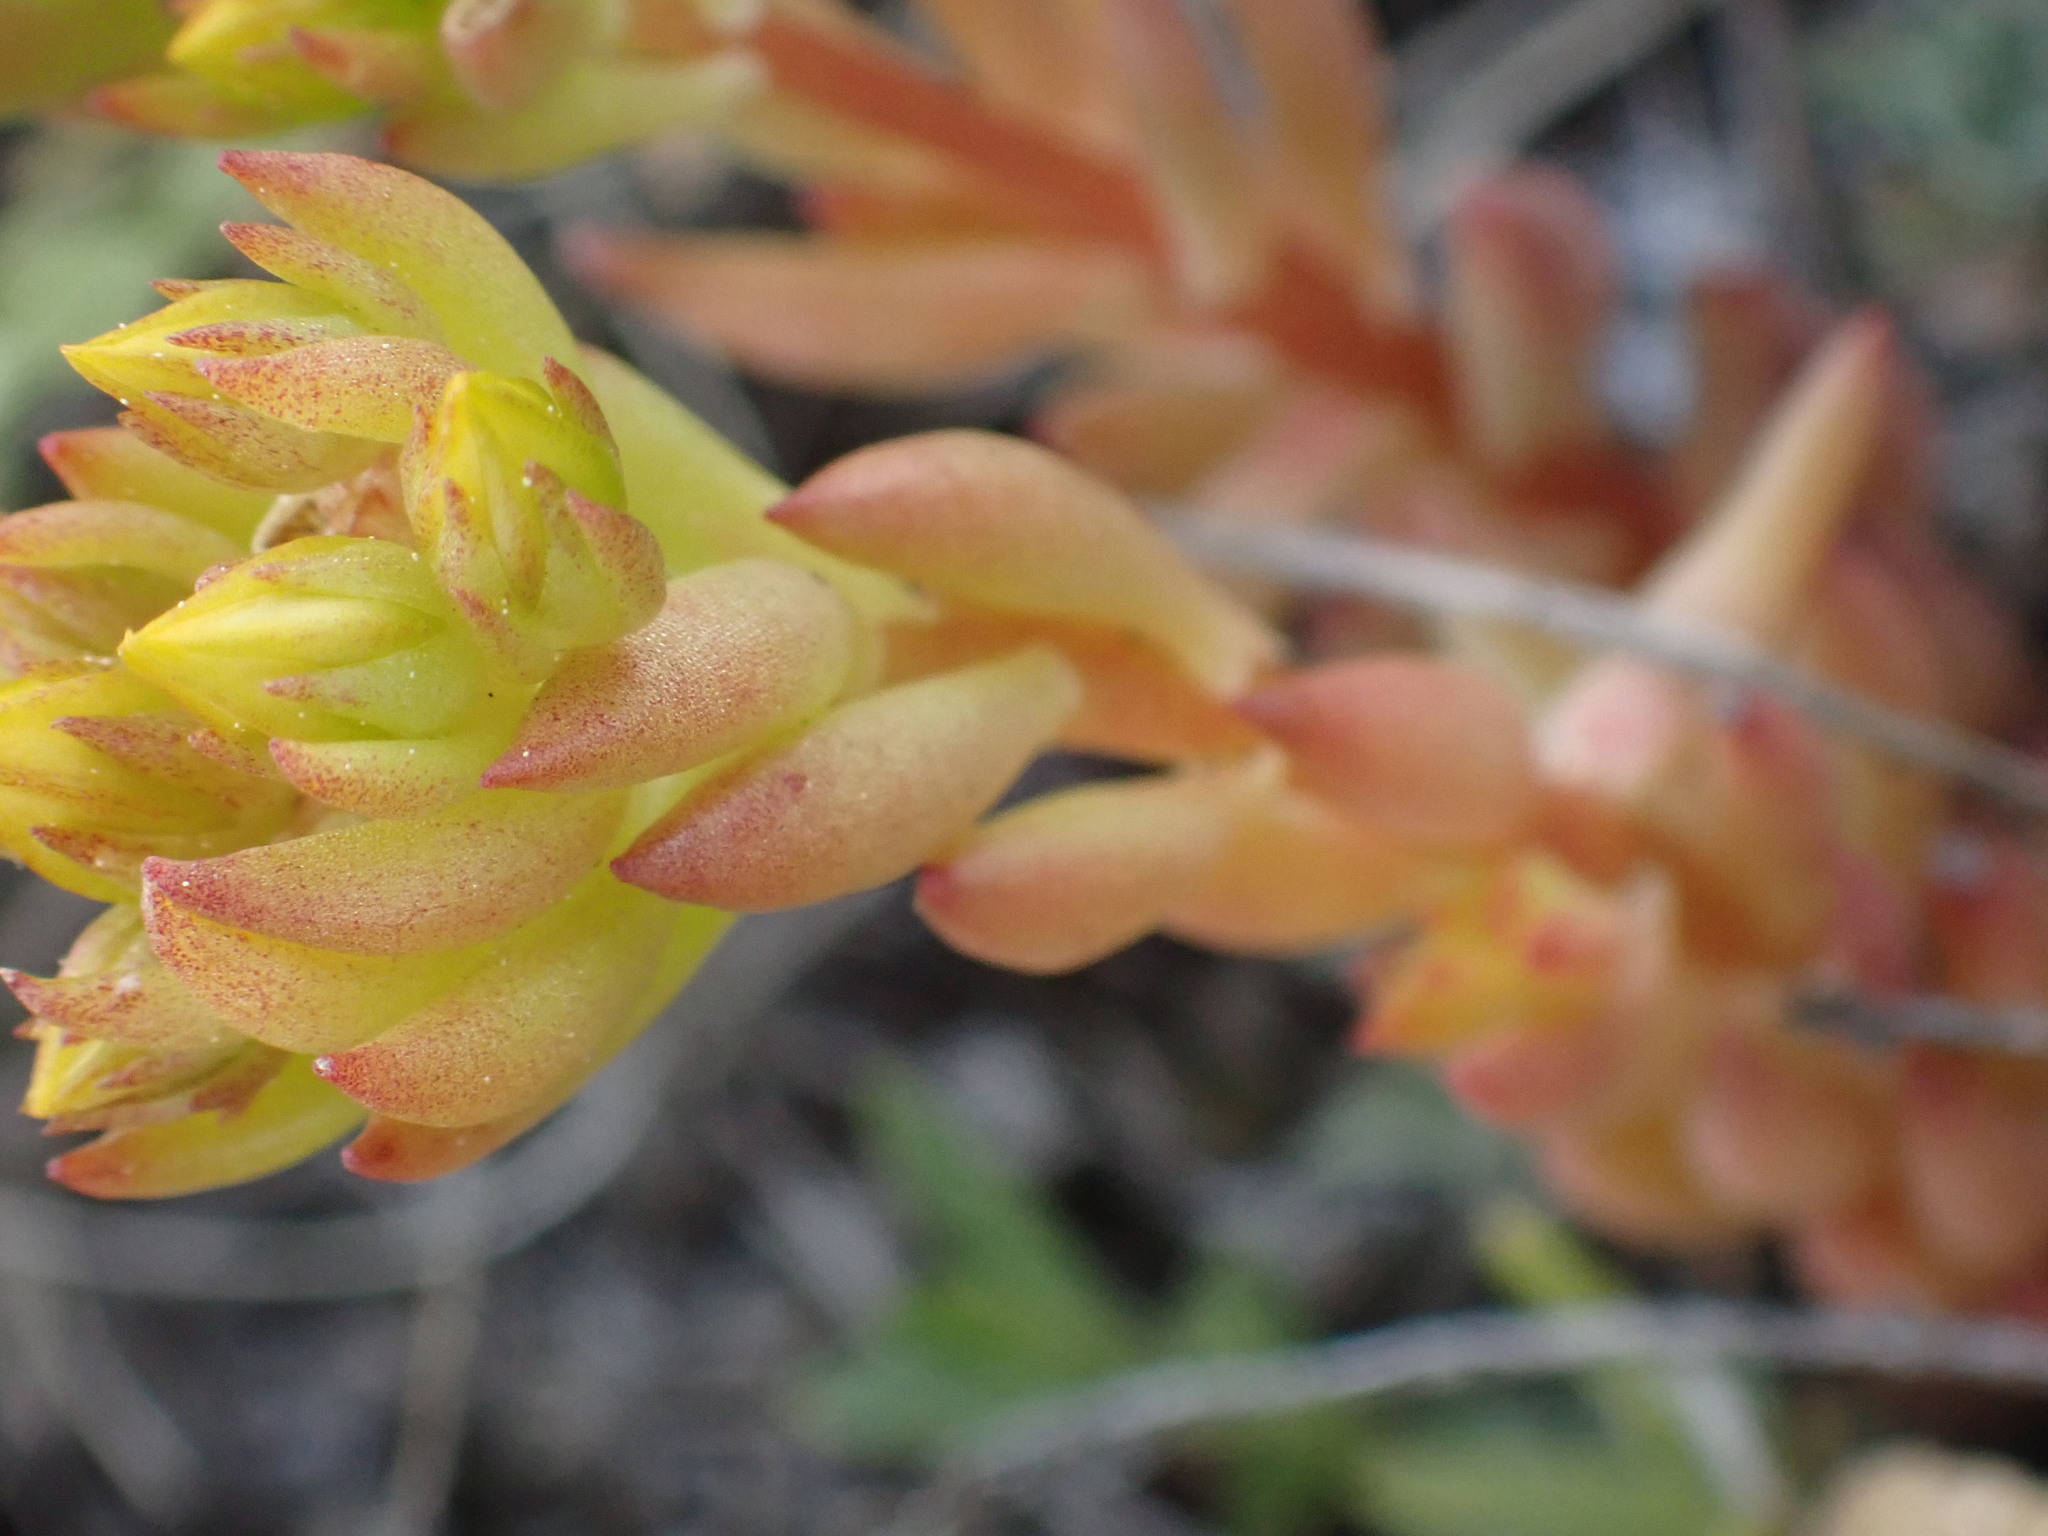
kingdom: Plantae
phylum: Tracheophyta
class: Magnoliopsida
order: Saxifragales
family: Crassulaceae
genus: Sedum
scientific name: Sedum lanceolatum
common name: Common stonecrop
